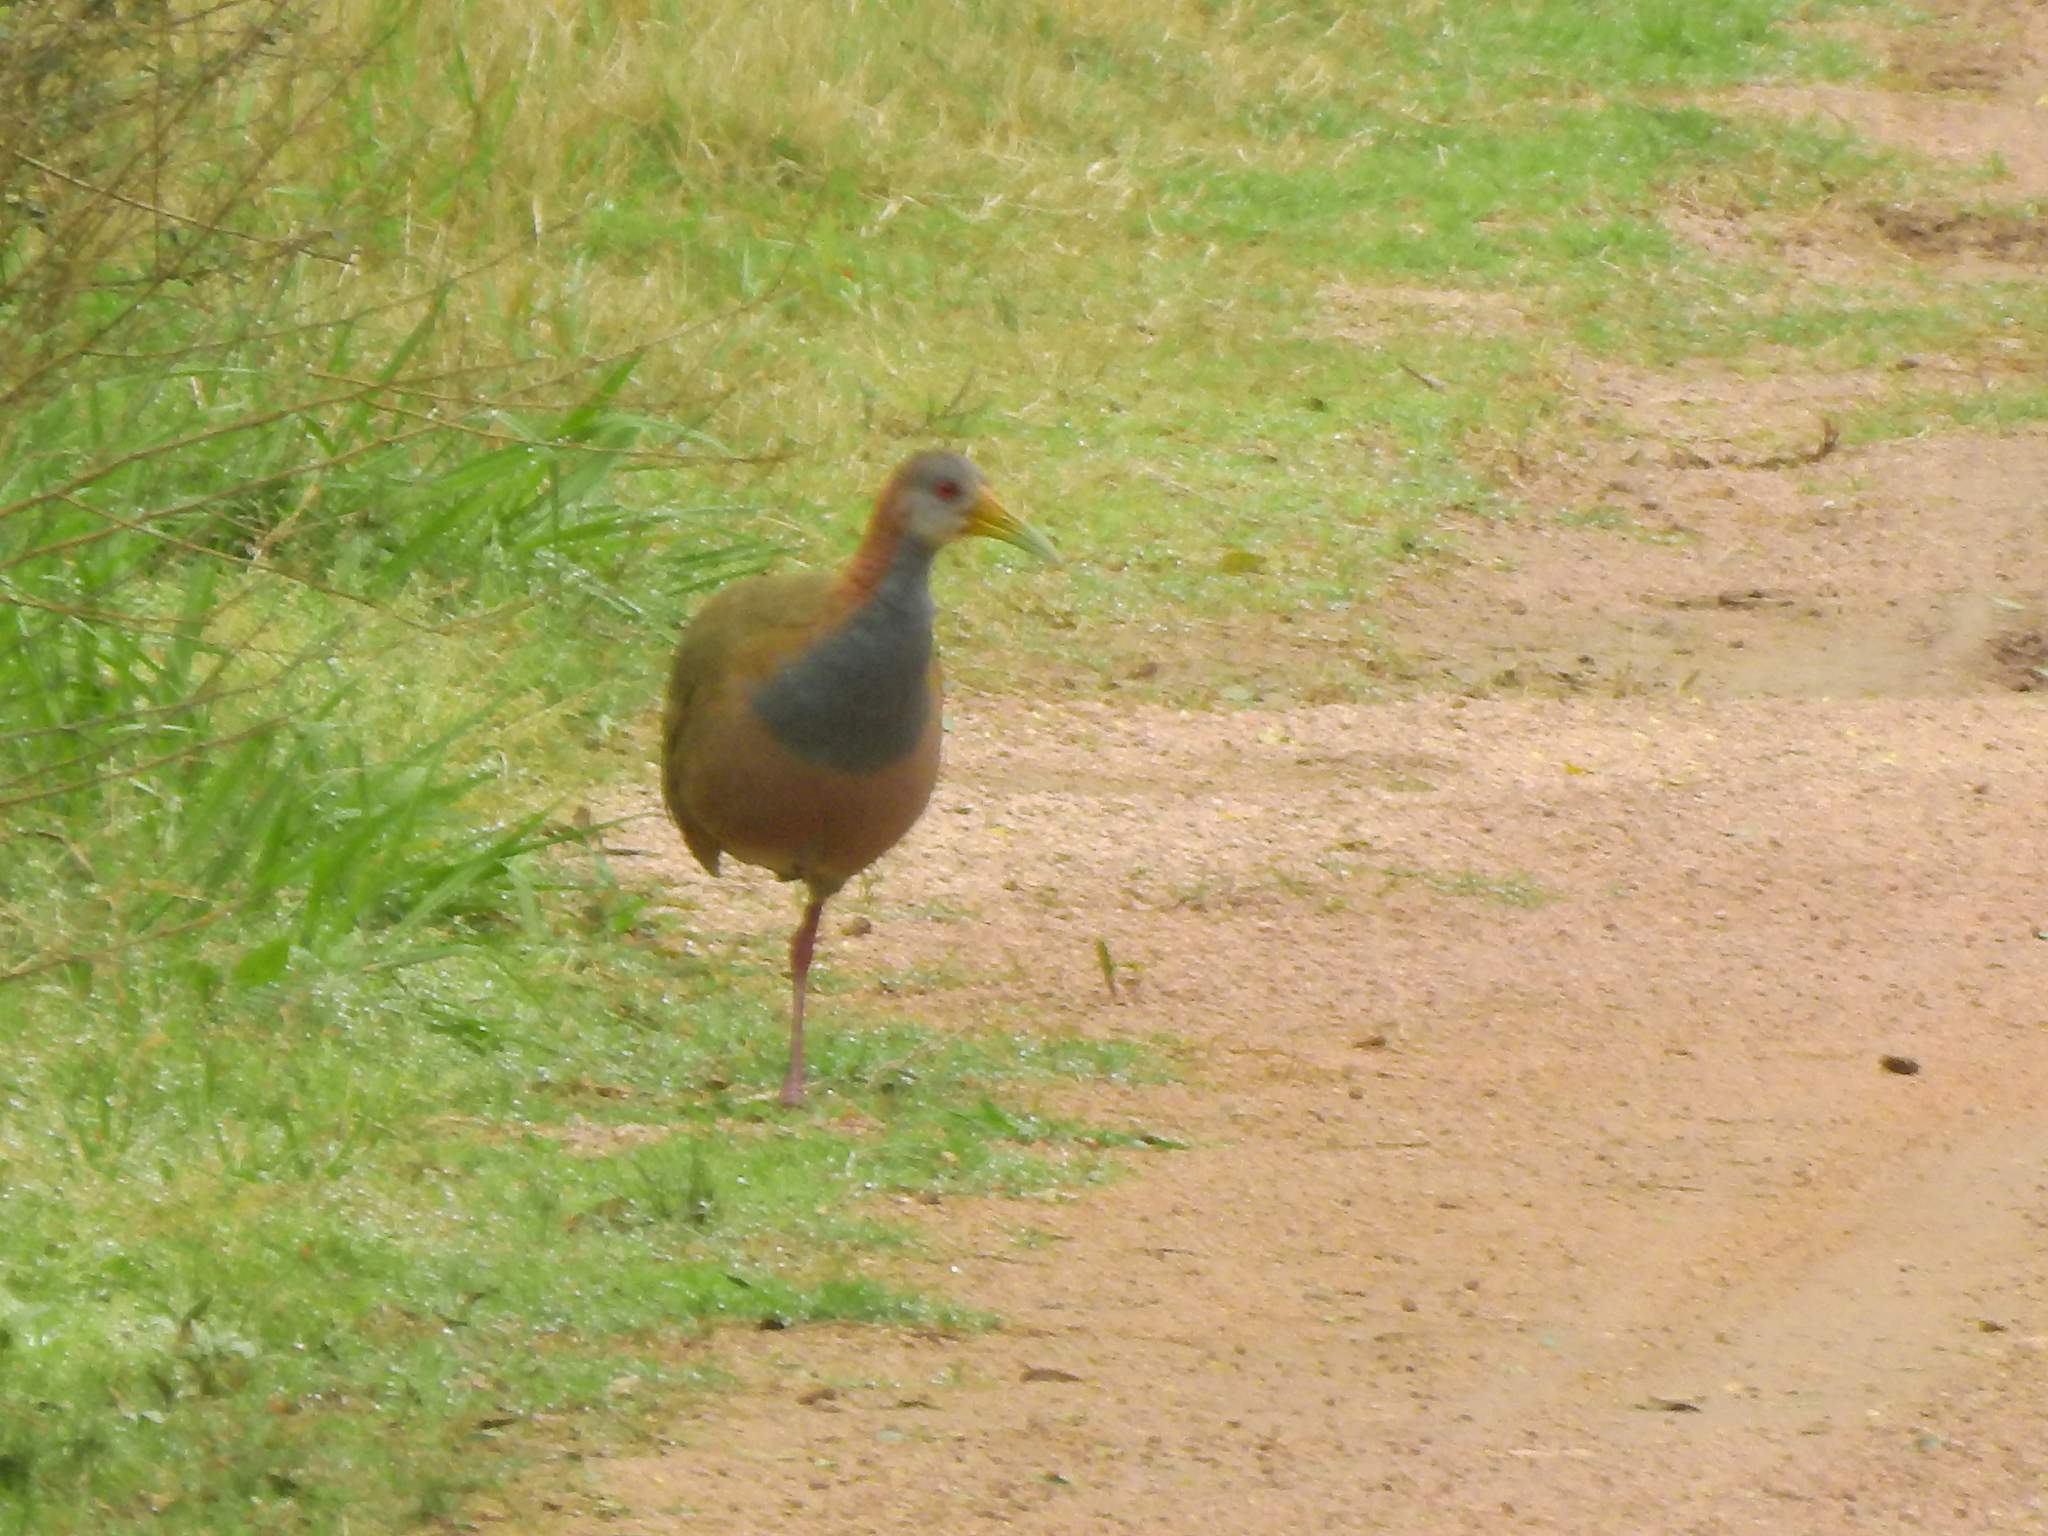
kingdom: Animalia
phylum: Chordata
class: Aves
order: Gruiformes
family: Rallidae
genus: Aramides
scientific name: Aramides ypecaha
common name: Giant wood rail
